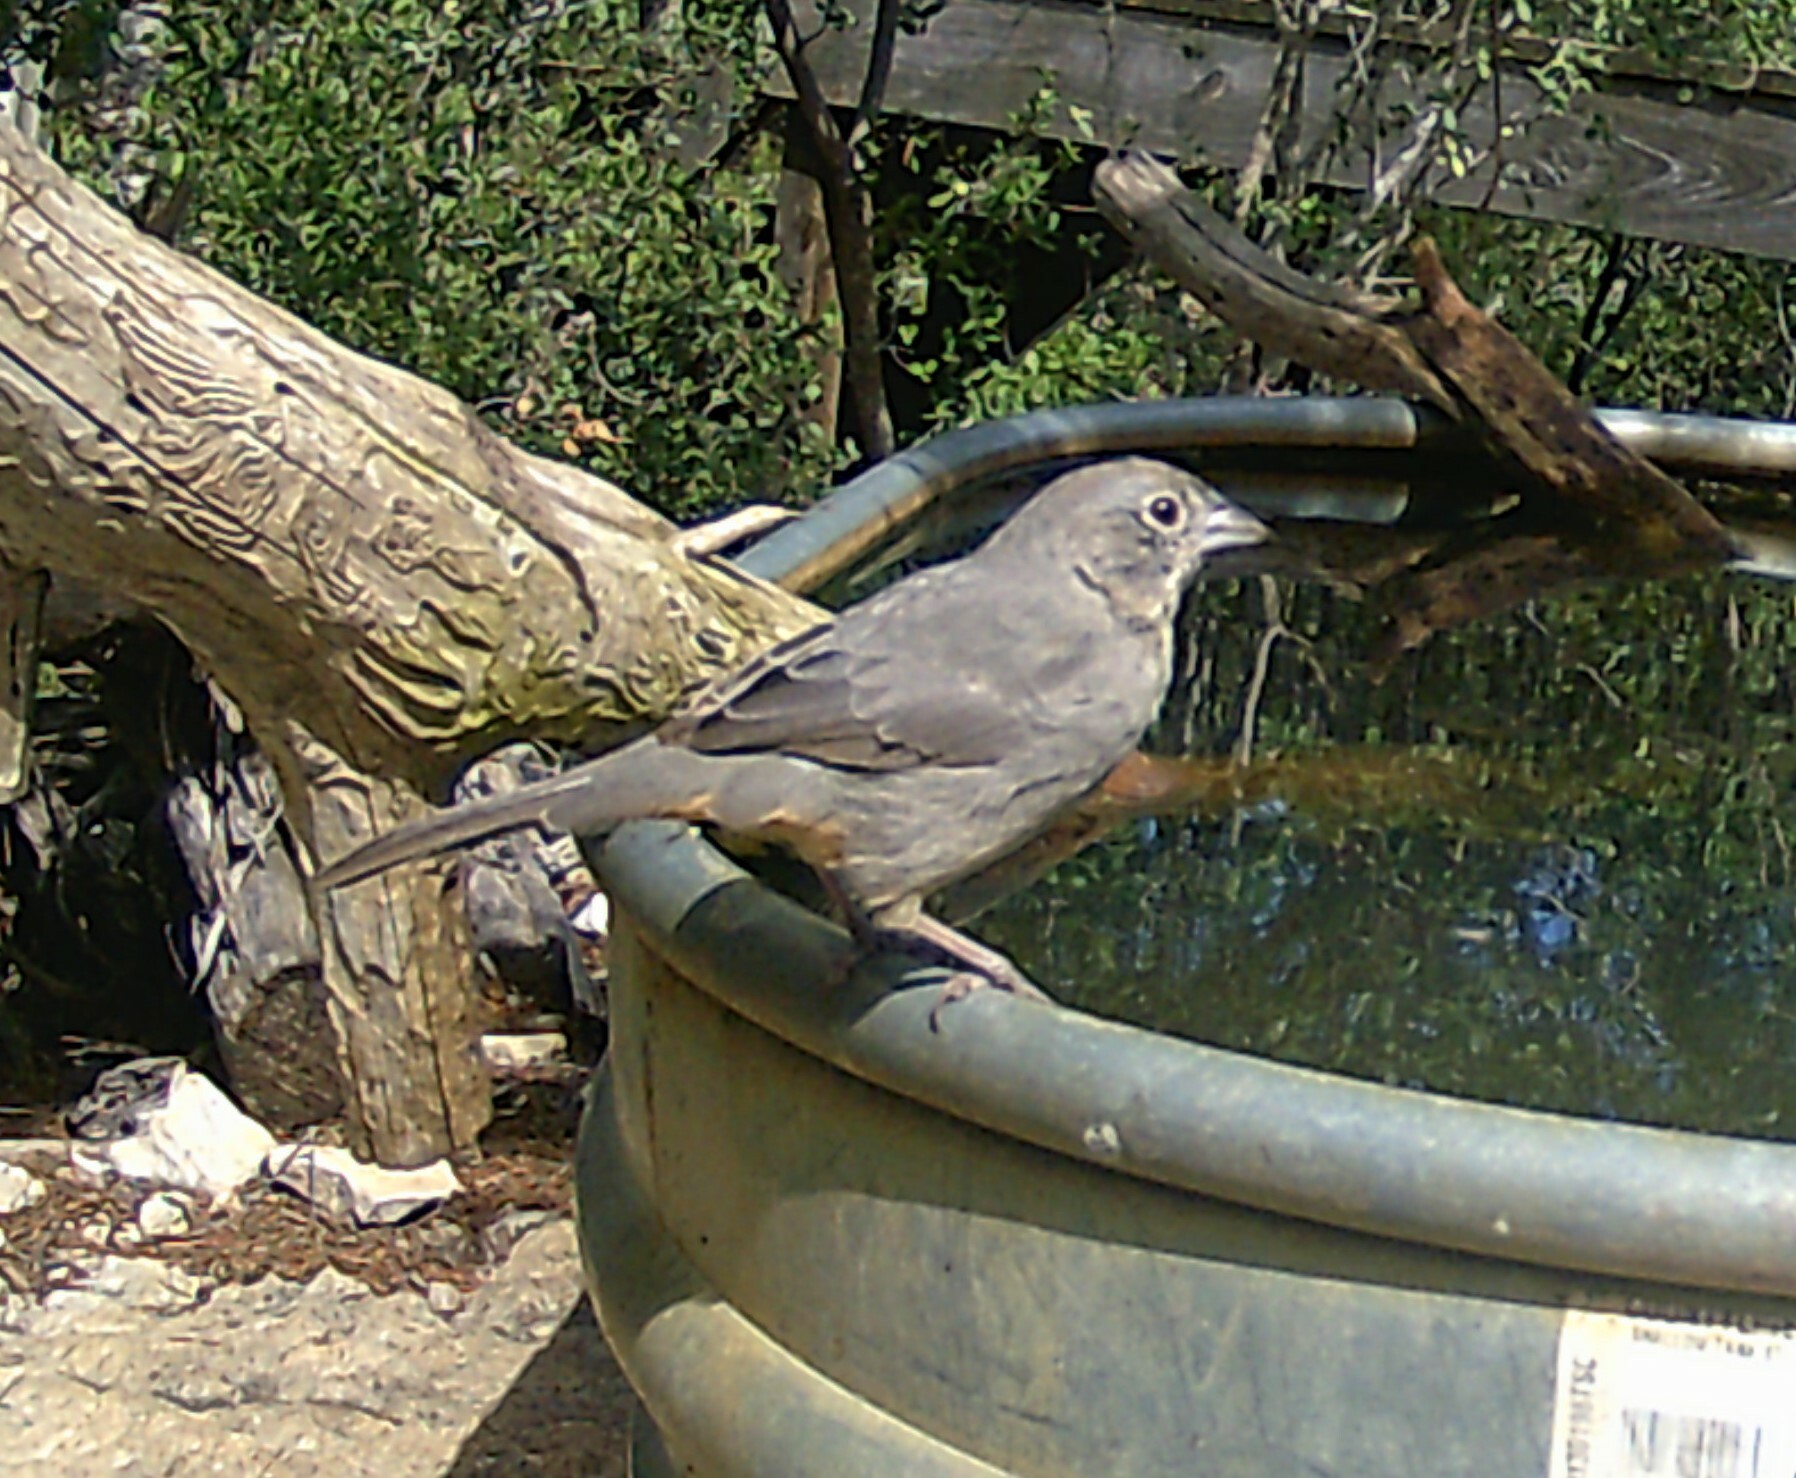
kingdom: Animalia
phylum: Chordata
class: Aves
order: Passeriformes
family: Passerellidae
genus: Melozone
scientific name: Melozone fusca
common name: Canyon towhee
